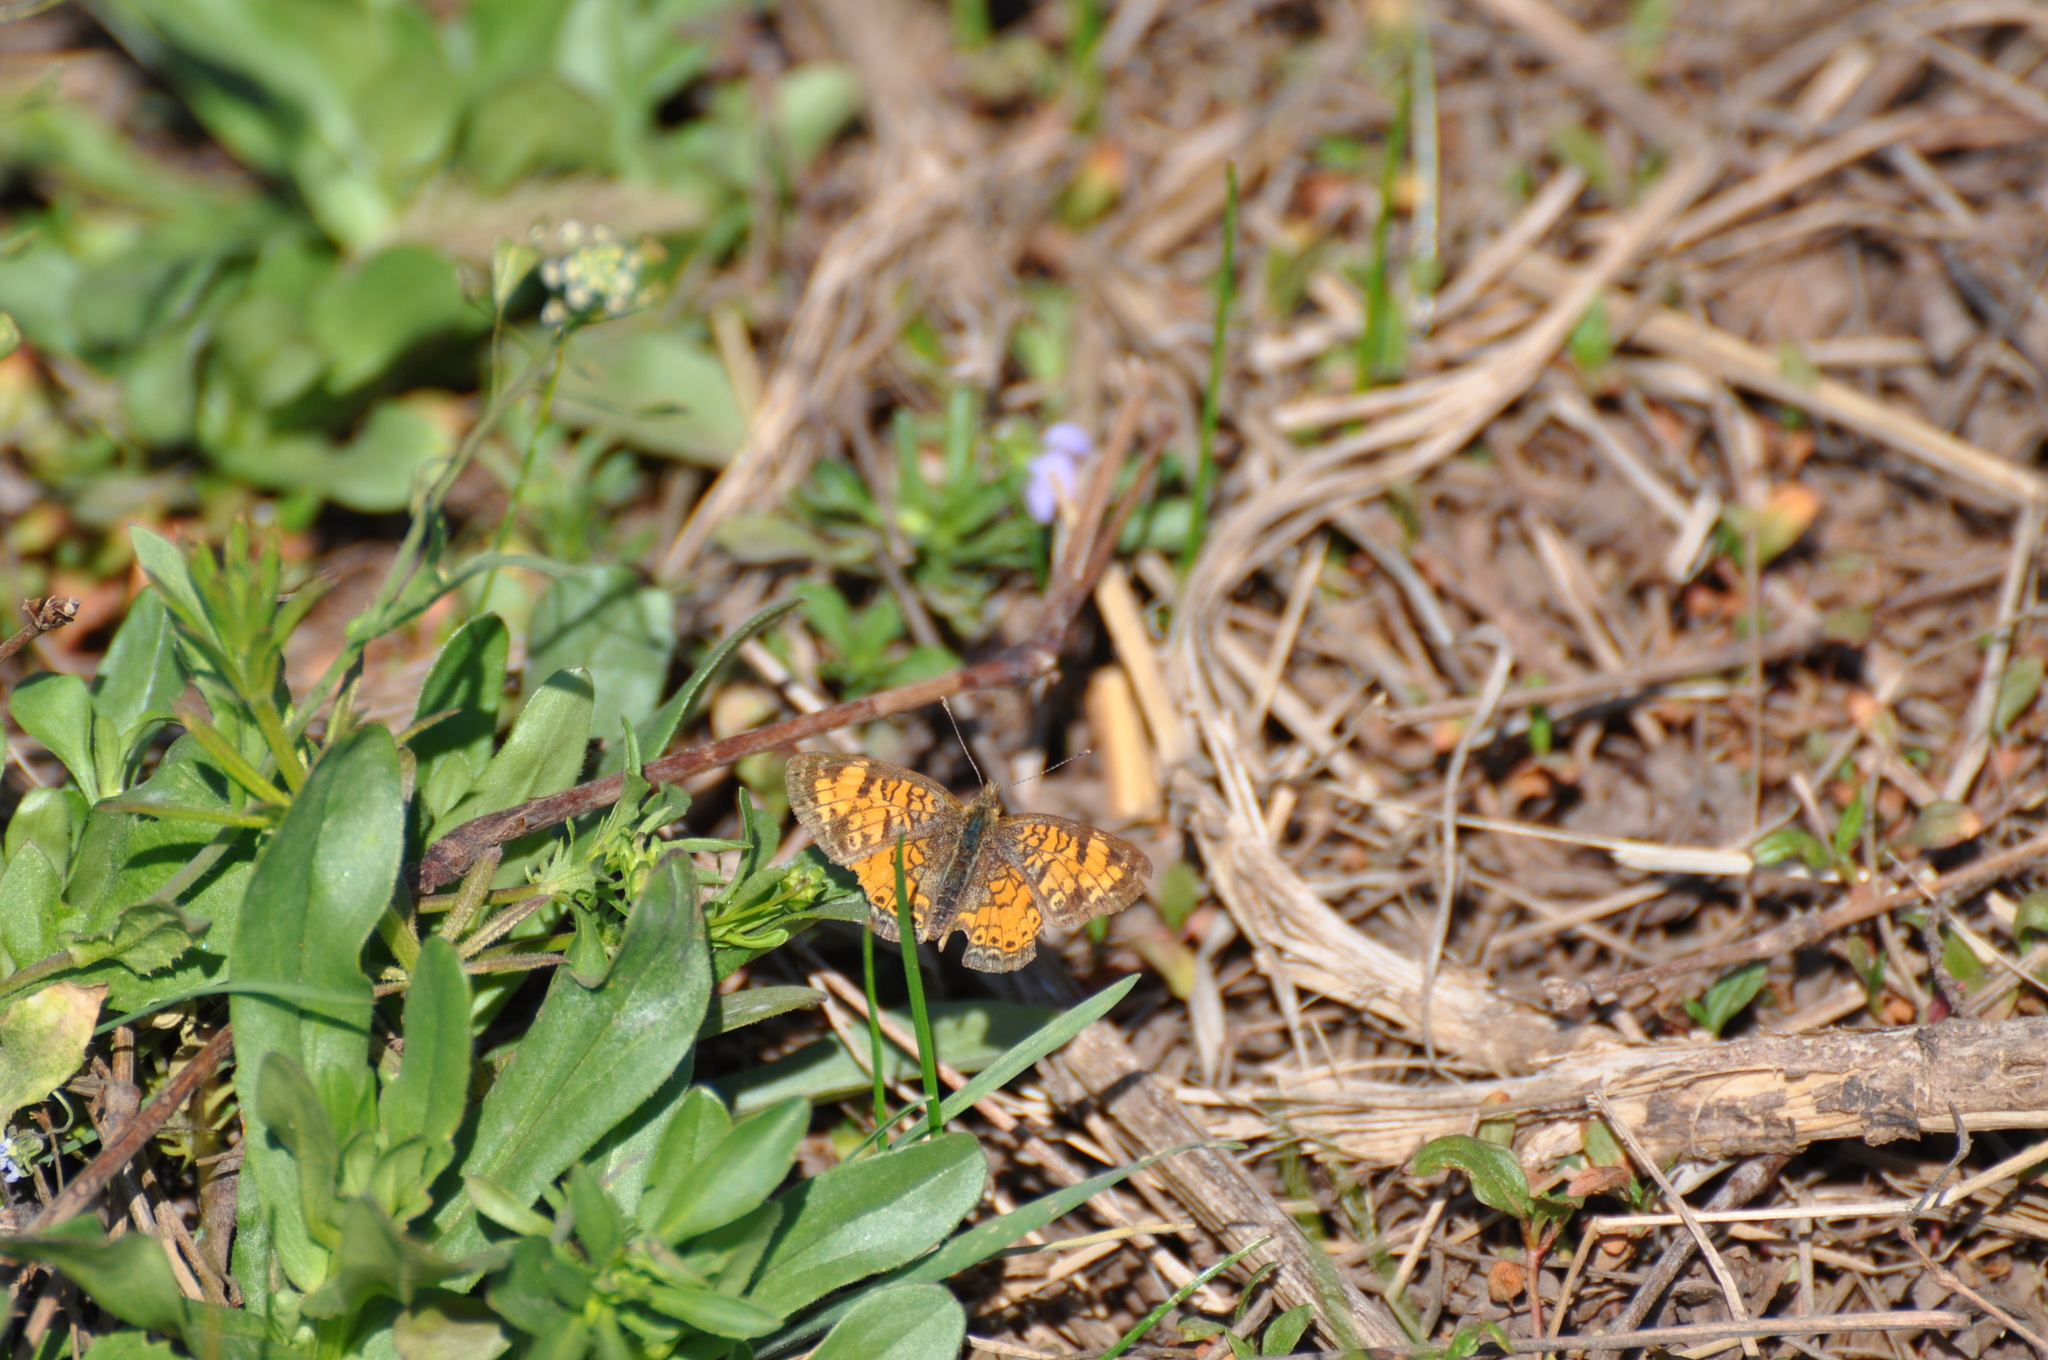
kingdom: Animalia
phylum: Arthropoda
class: Insecta
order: Lepidoptera
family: Nymphalidae
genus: Phyciodes
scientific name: Phyciodes tharos
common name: Pearl crescent
